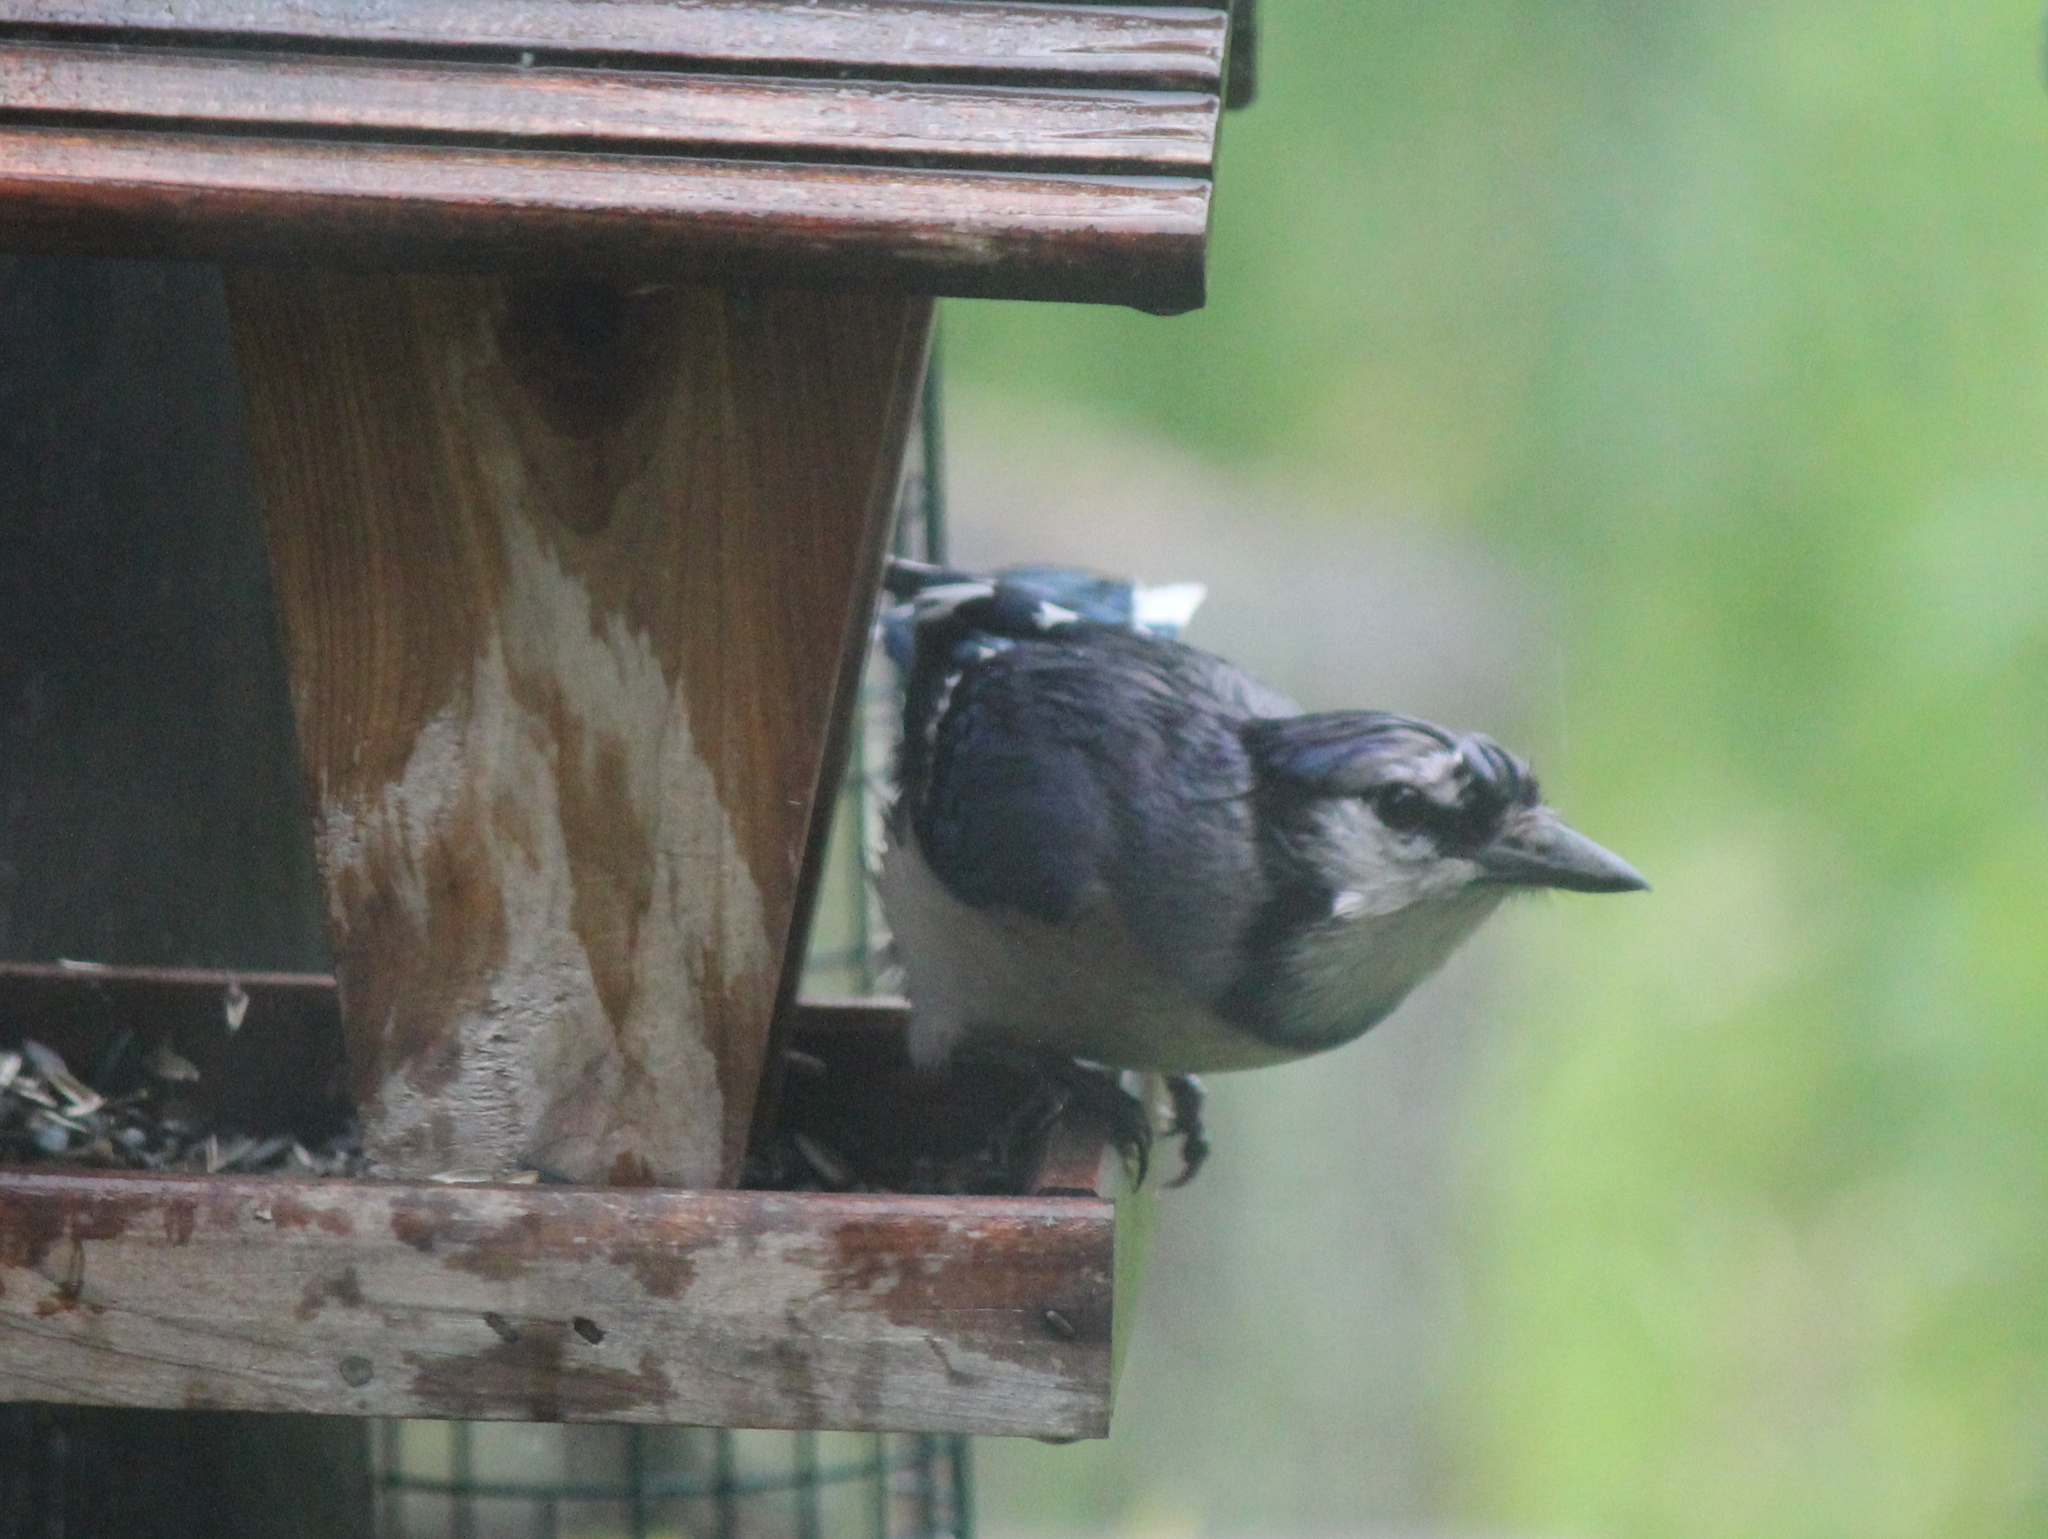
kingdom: Animalia
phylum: Chordata
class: Aves
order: Passeriformes
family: Corvidae
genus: Cyanocitta
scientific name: Cyanocitta cristata
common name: Blue jay
